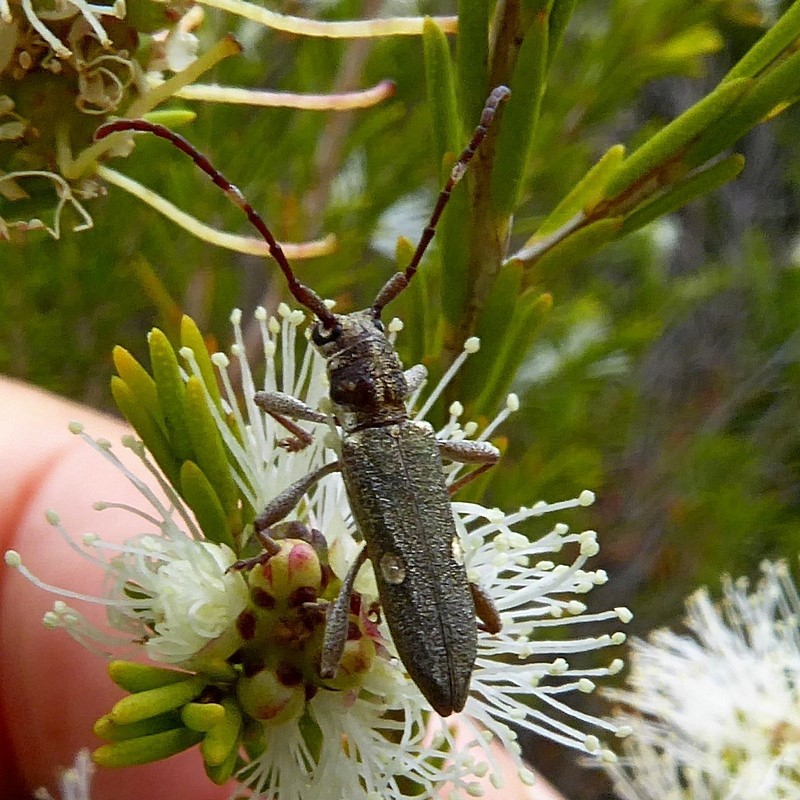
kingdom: Animalia
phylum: Arthropoda
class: Insecta
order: Coleoptera
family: Cerambycidae
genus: Pempsamacra
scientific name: Pempsamacra pygmaea
